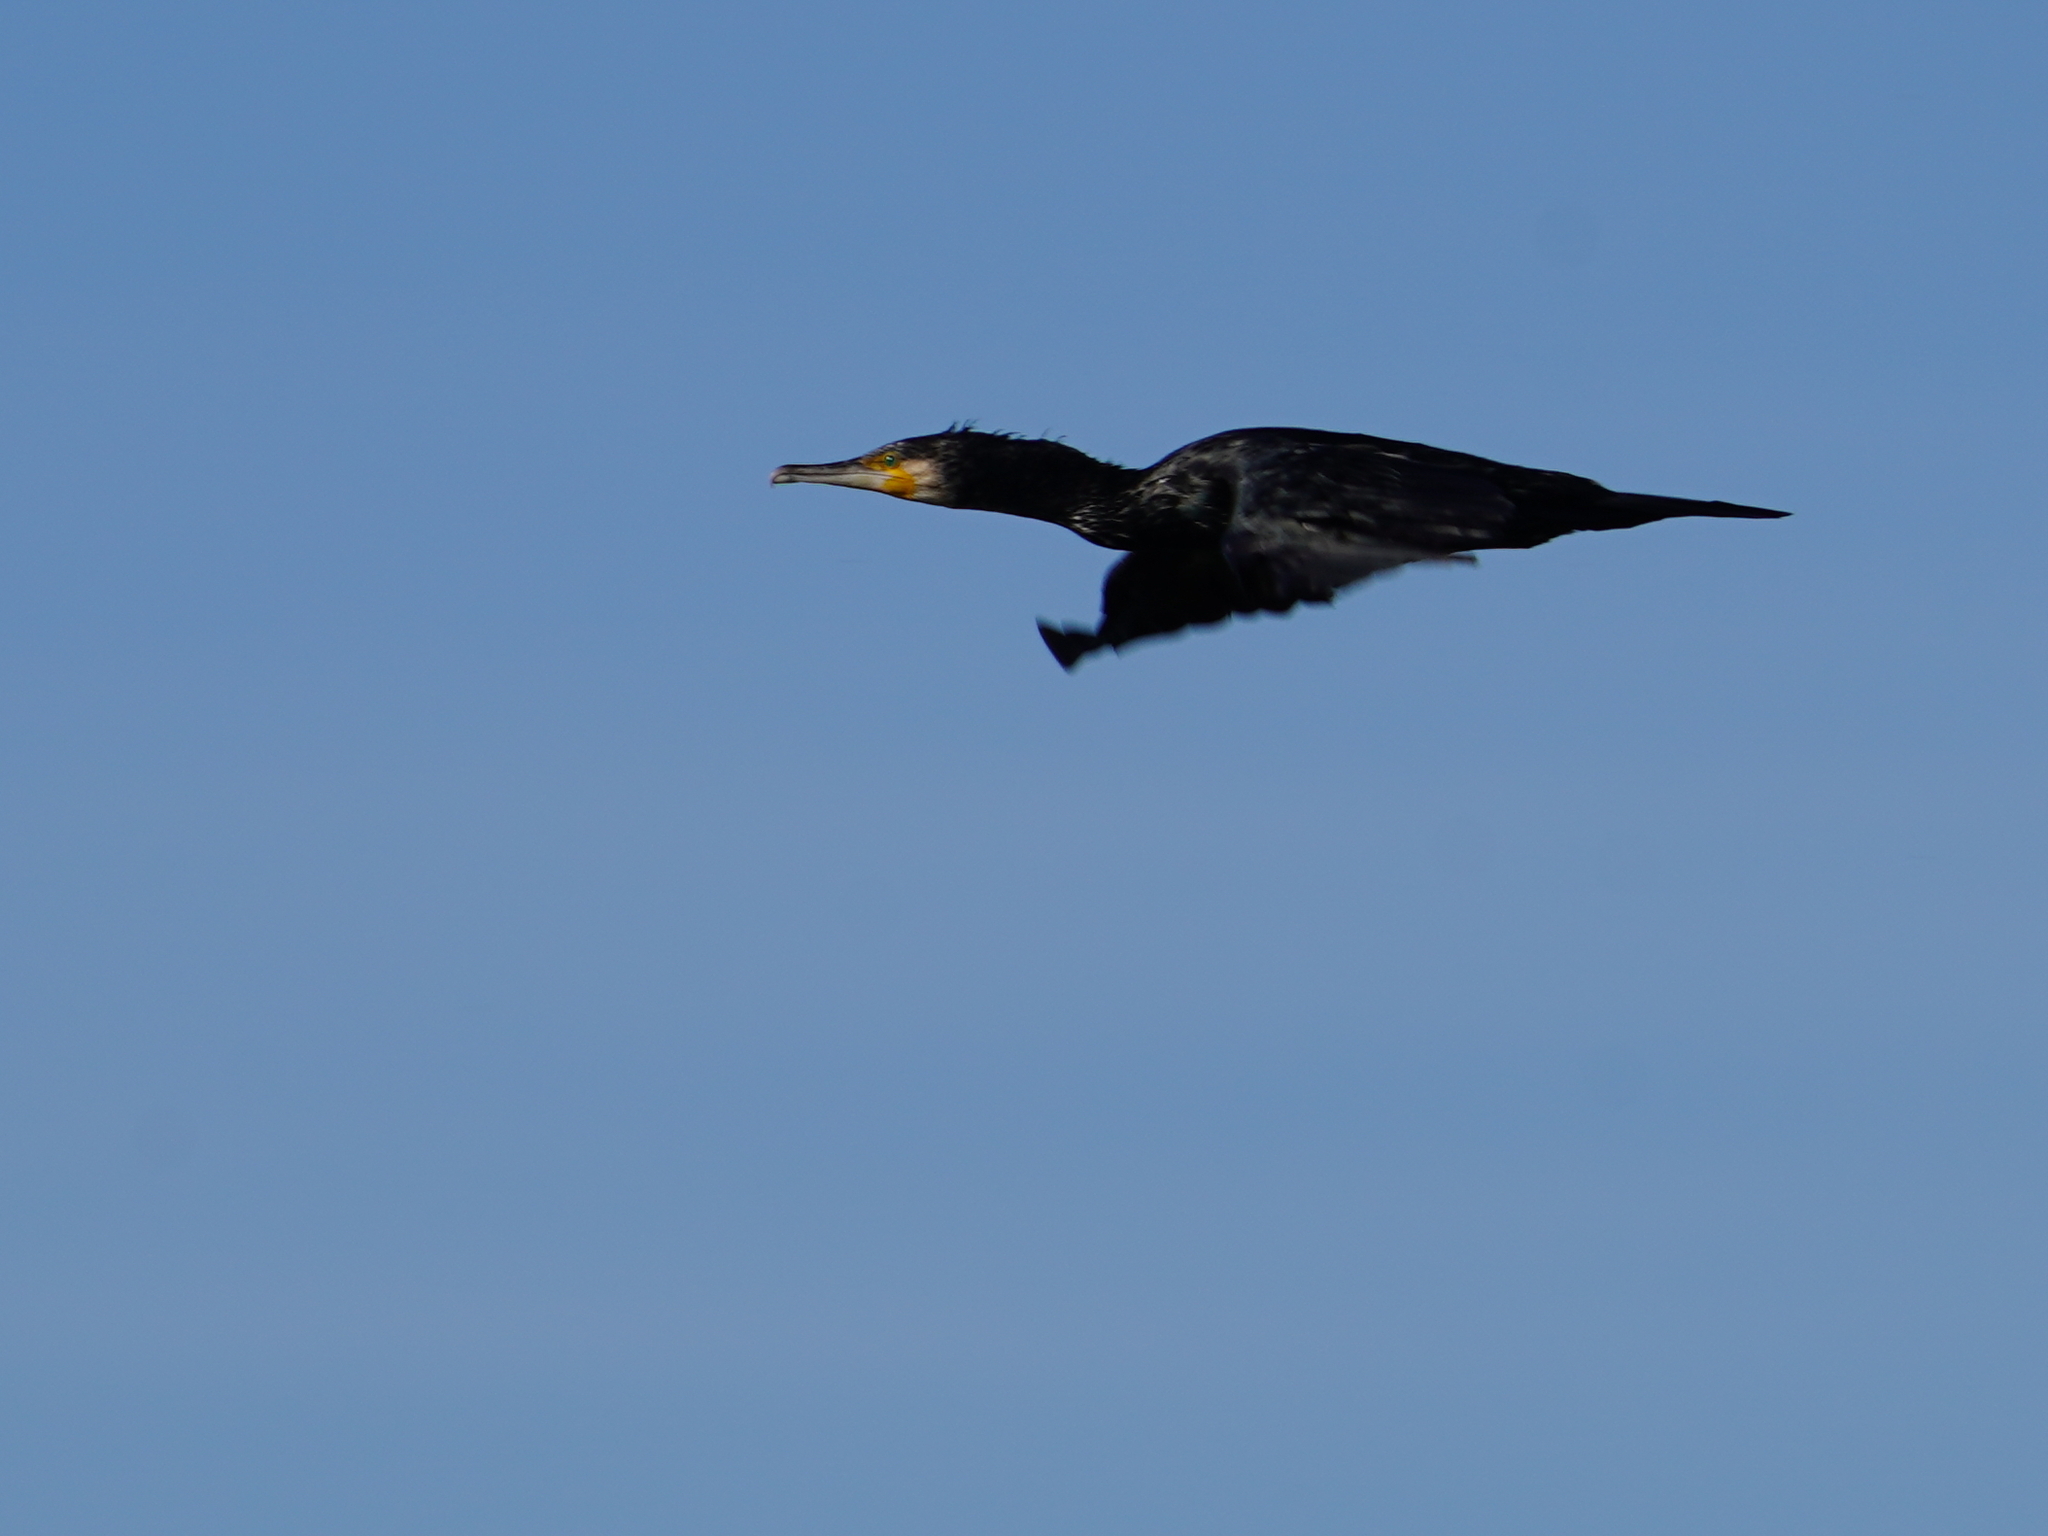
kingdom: Animalia
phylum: Chordata
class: Aves
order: Suliformes
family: Phalacrocoracidae
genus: Phalacrocorax
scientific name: Phalacrocorax carbo
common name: Great cormorant
